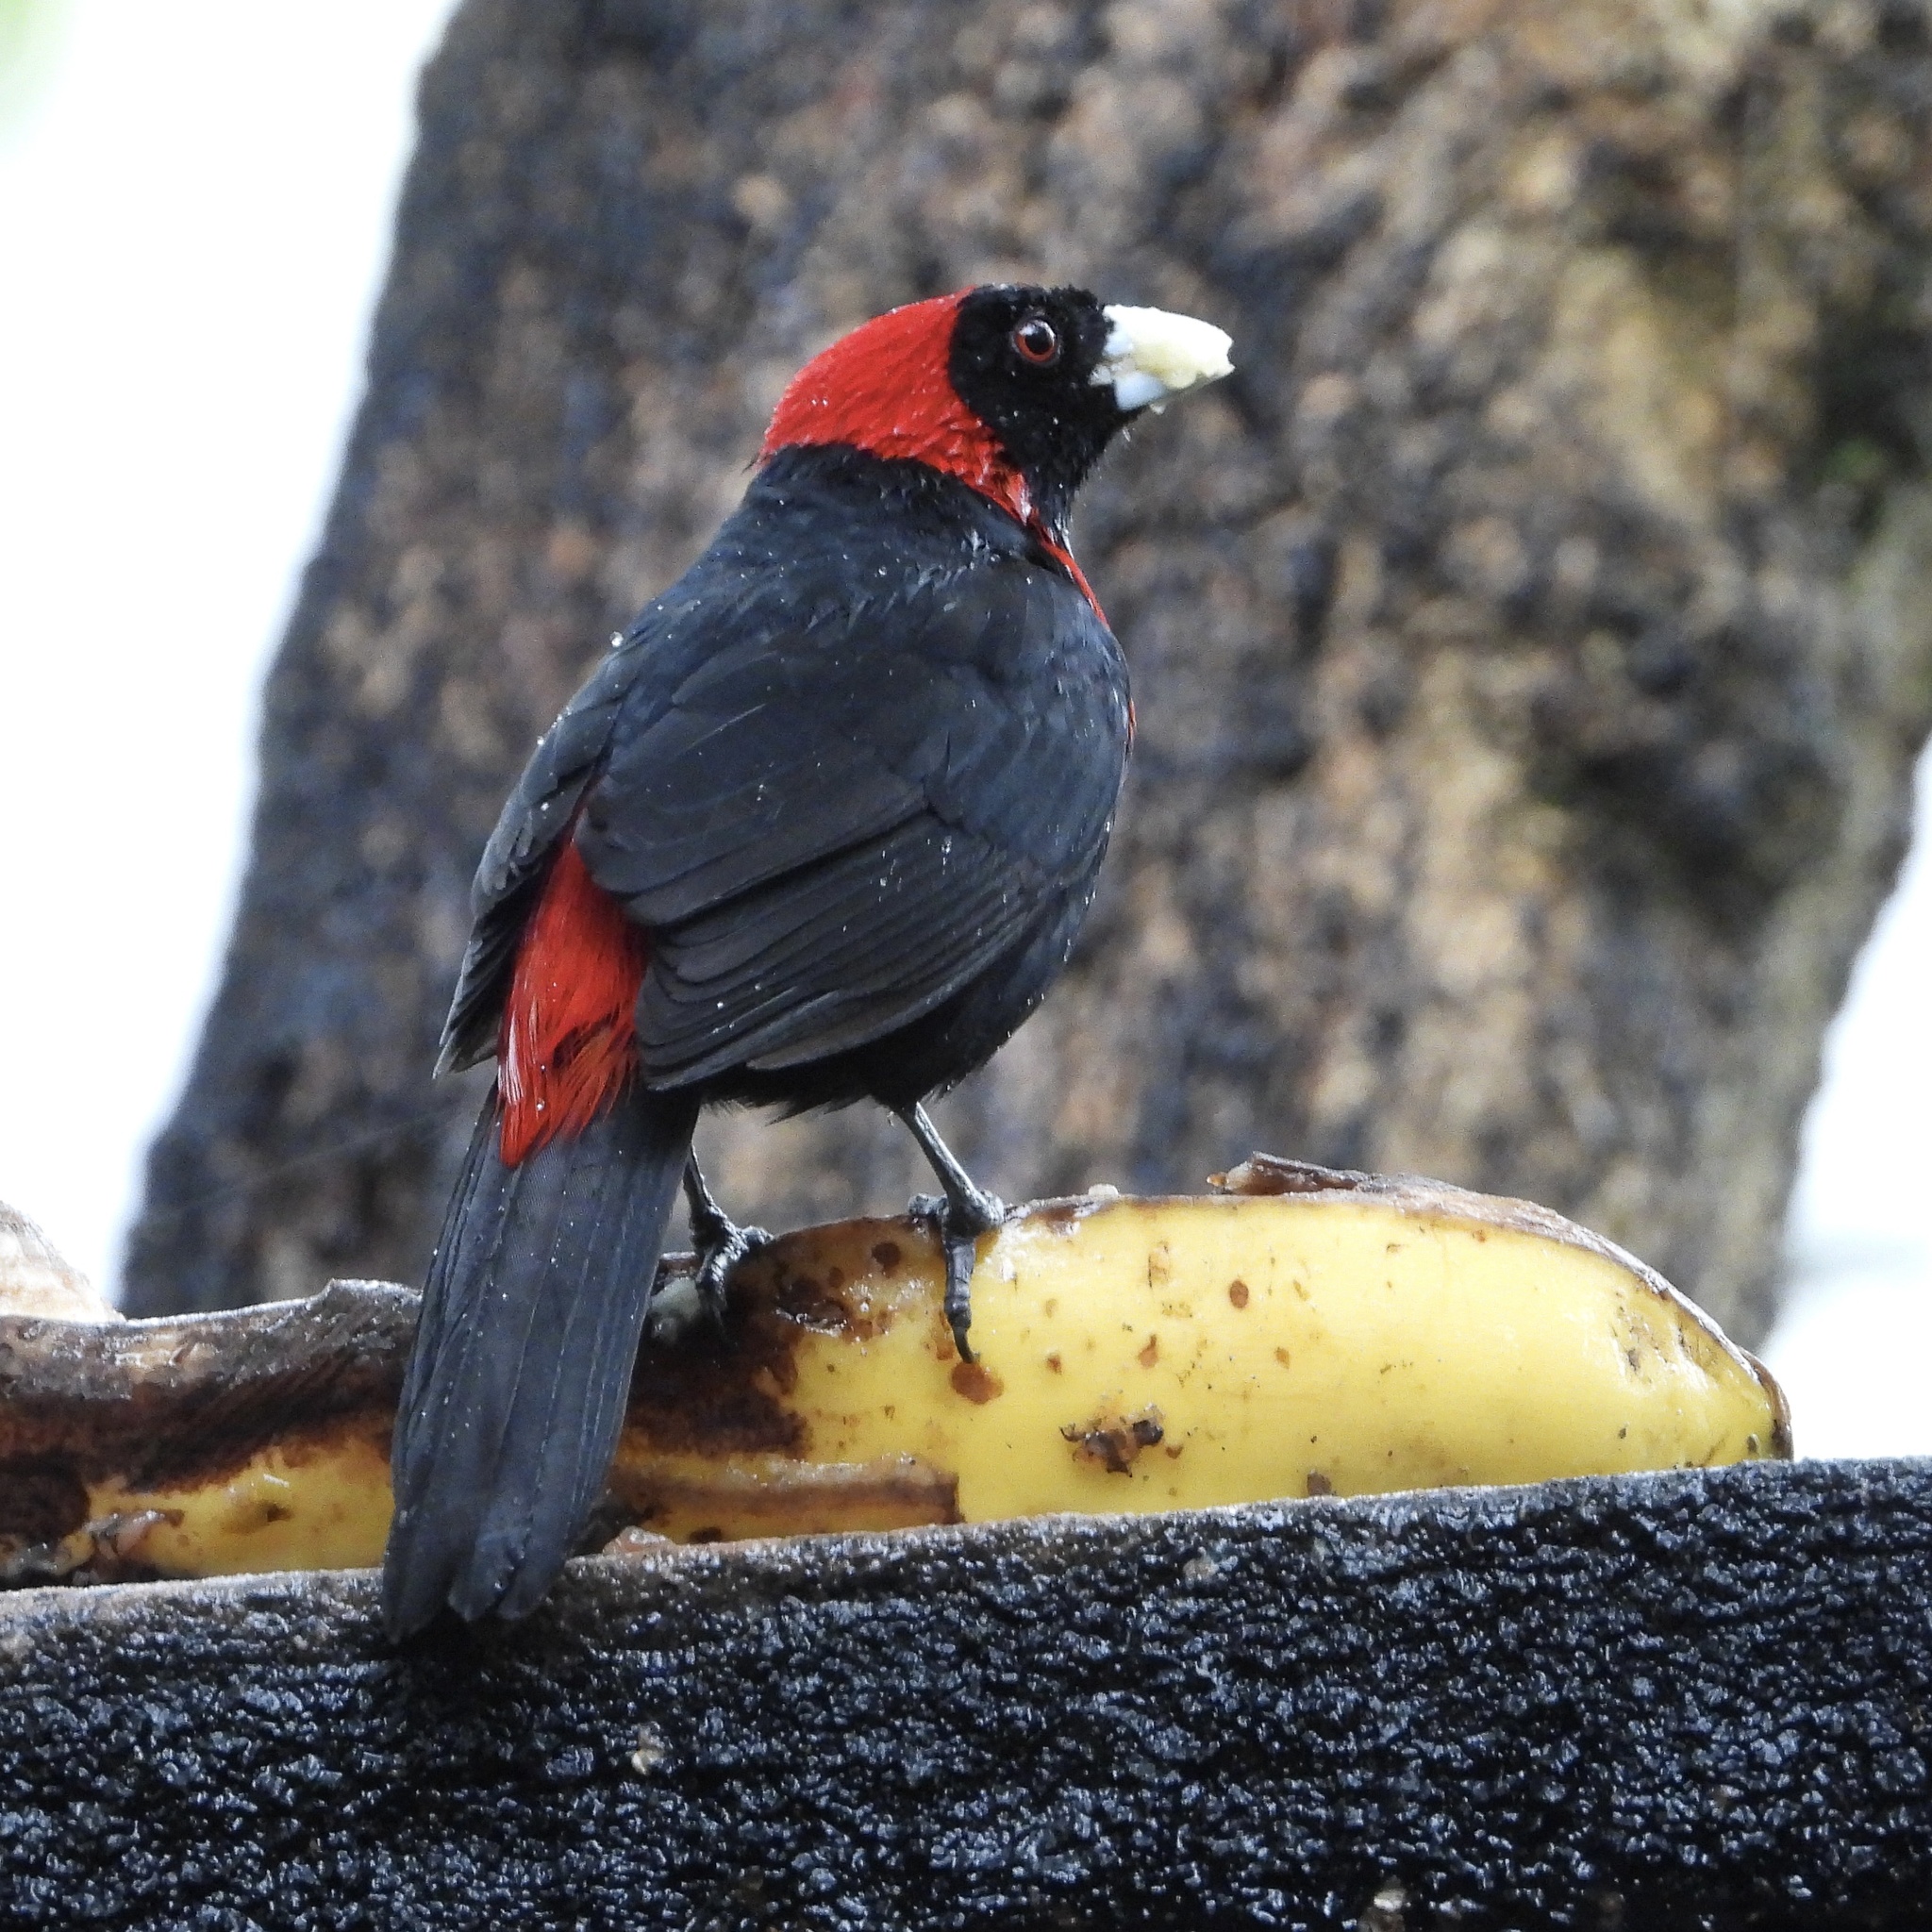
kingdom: Animalia
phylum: Chordata
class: Aves
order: Passeriformes
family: Thraupidae
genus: Ramphocelus
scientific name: Ramphocelus sanguinolentus
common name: Crimson-collared tanager
